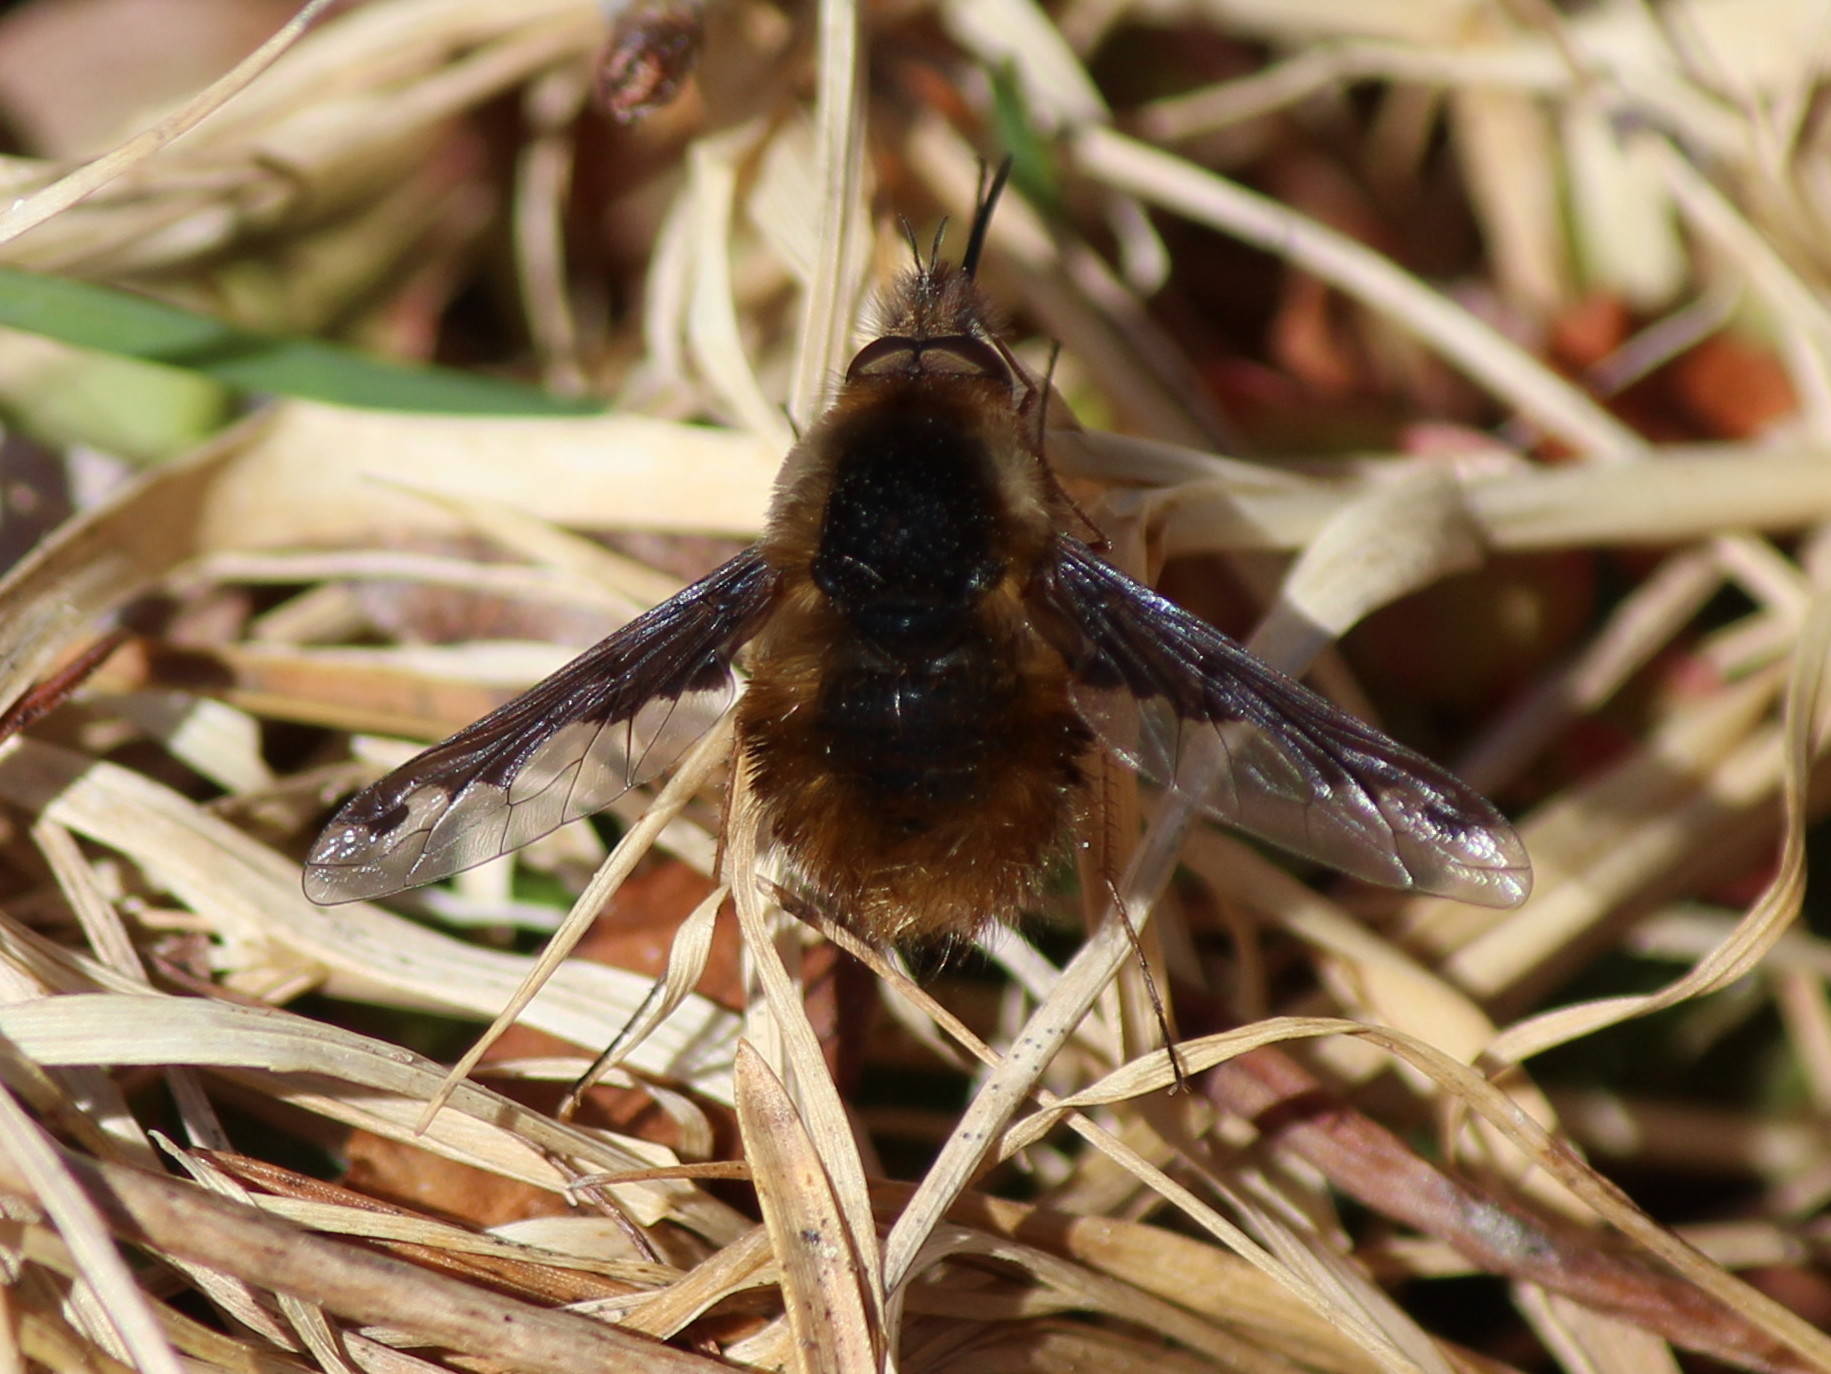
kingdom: Animalia
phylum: Arthropoda
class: Insecta
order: Diptera
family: Bombyliidae
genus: Bombylius
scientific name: Bombylius major
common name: Bee fly
